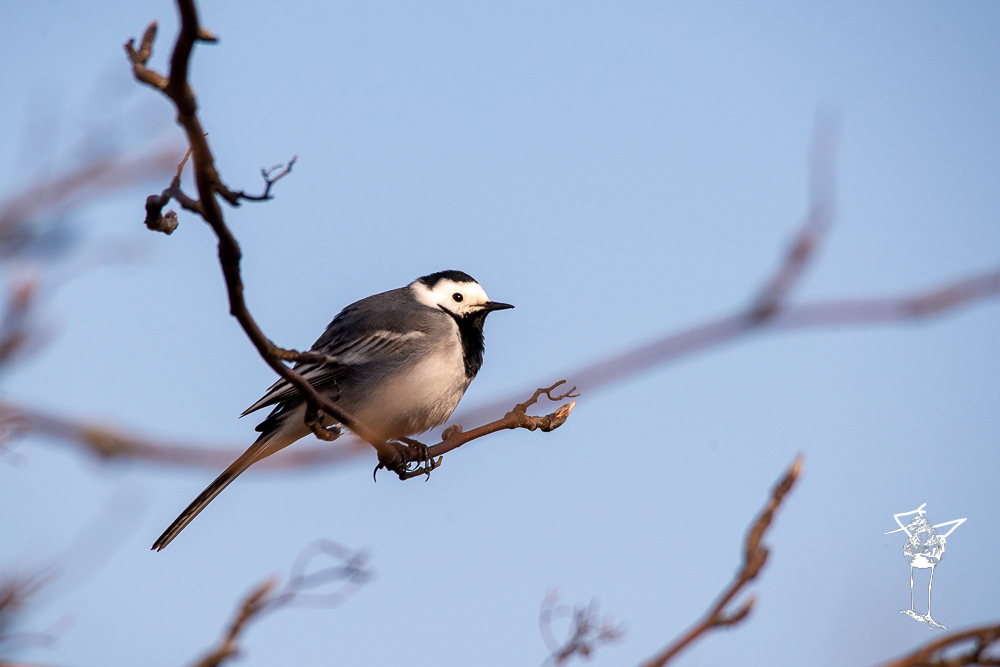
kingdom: Animalia
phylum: Chordata
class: Aves
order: Passeriformes
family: Motacillidae
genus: Motacilla
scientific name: Motacilla alba
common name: White wagtail
